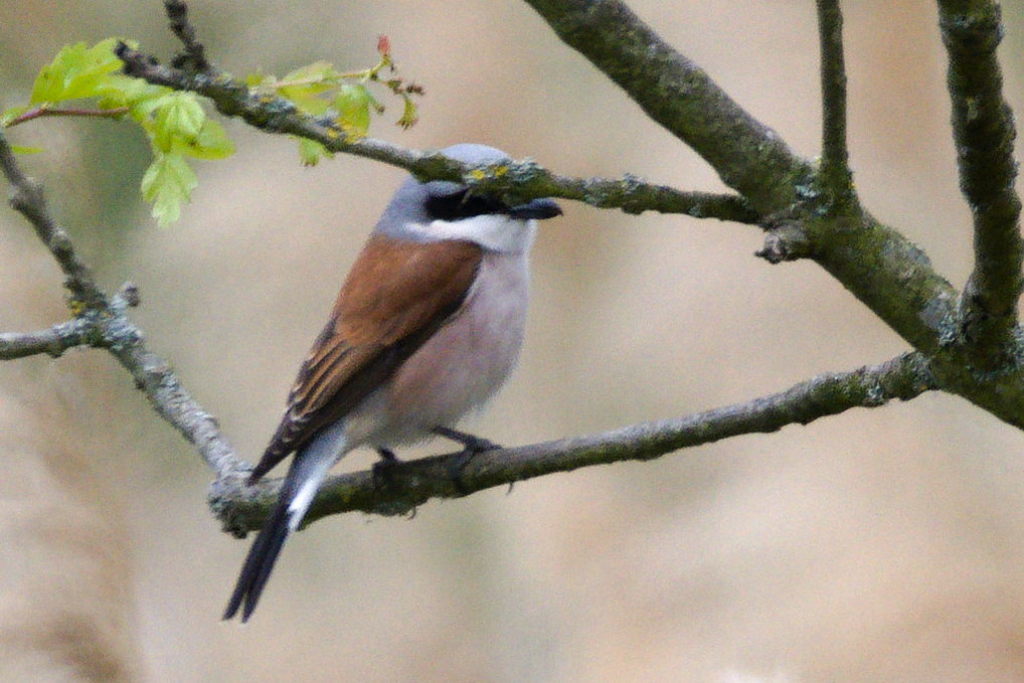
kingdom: Animalia
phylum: Chordata
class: Aves
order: Passeriformes
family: Laniidae
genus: Lanius
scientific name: Lanius collurio
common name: Red-backed shrike
